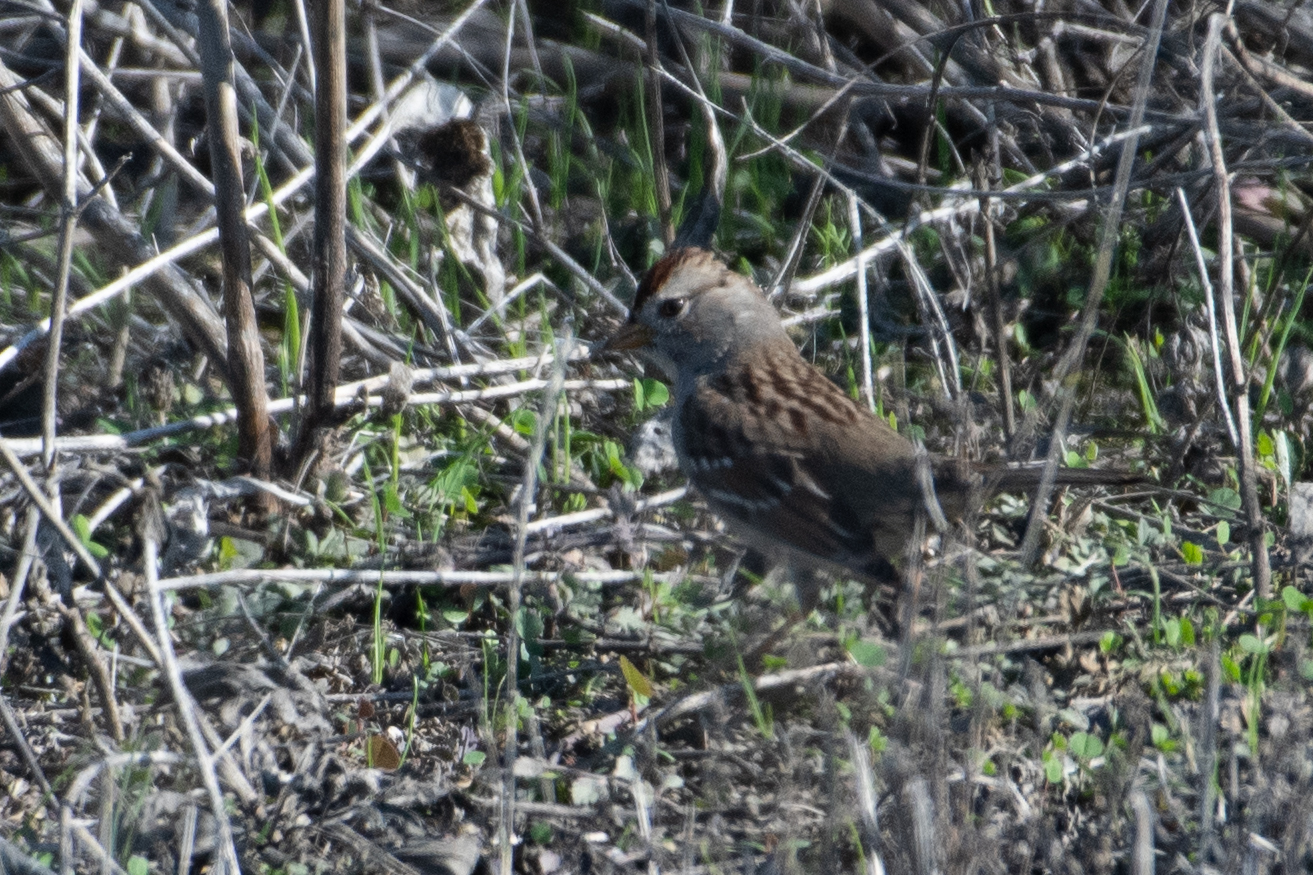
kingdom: Animalia
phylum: Chordata
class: Aves
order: Passeriformes
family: Passerellidae
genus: Zonotrichia
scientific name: Zonotrichia leucophrys
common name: White-crowned sparrow
